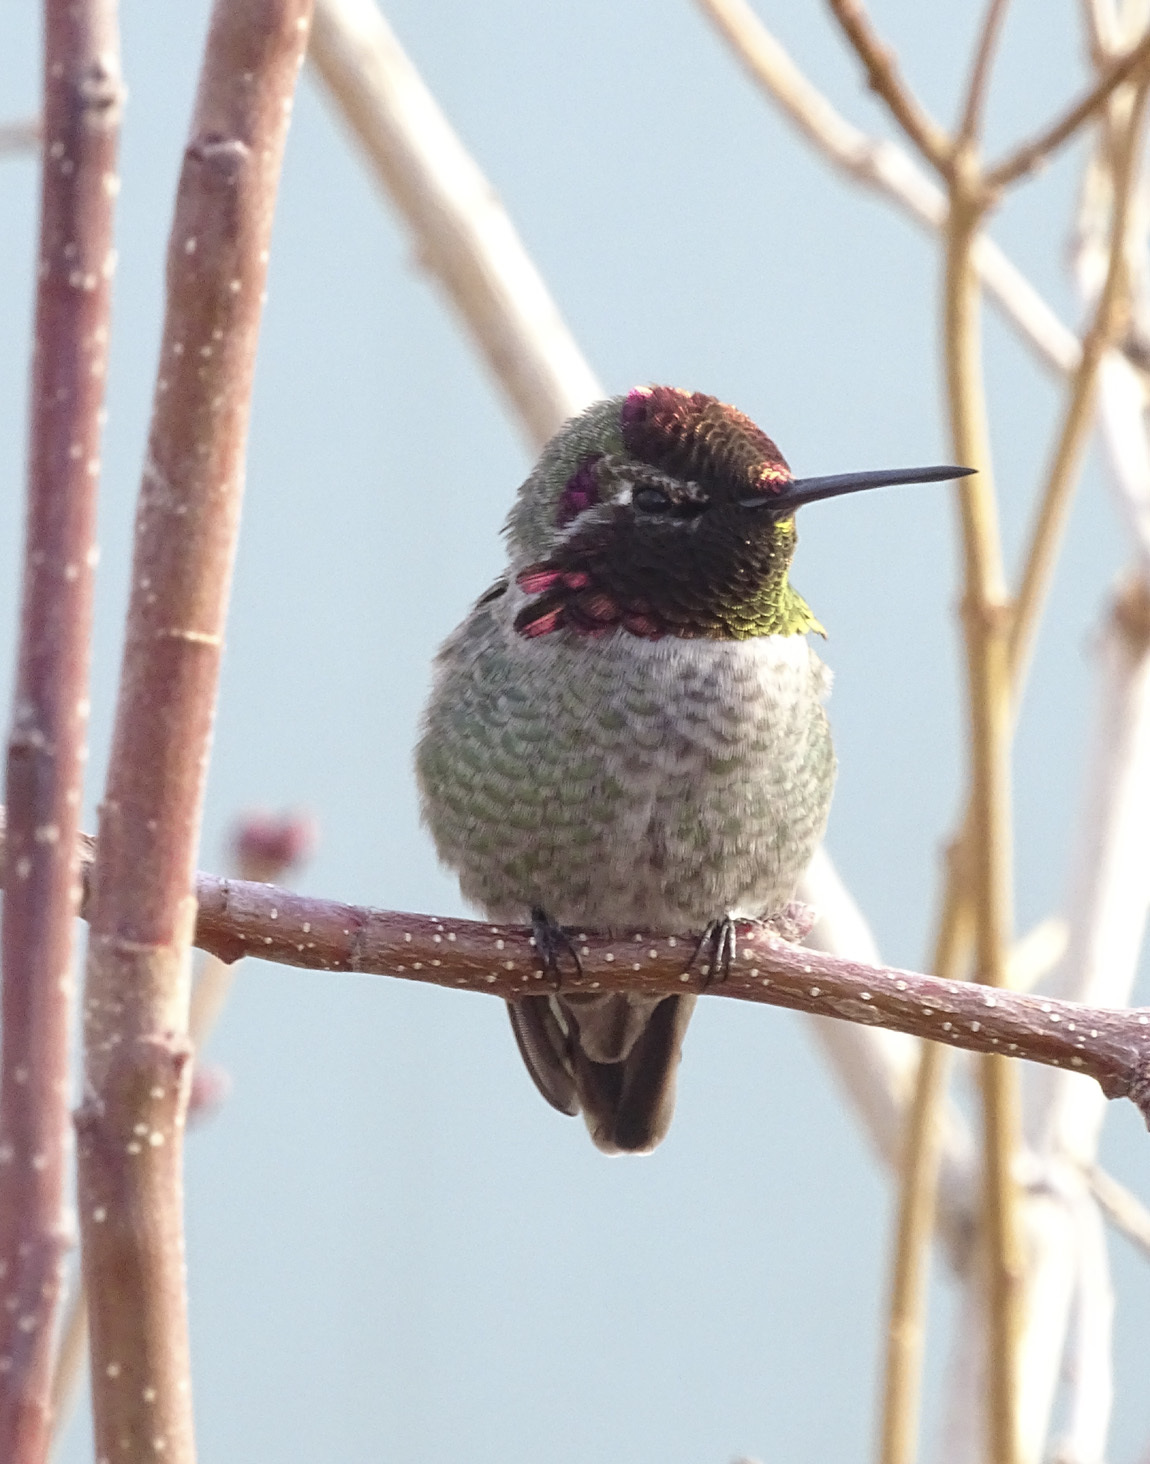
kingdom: Animalia
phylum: Chordata
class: Aves
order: Apodiformes
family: Trochilidae
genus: Calypte
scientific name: Calypte anna
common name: Anna's hummingbird
